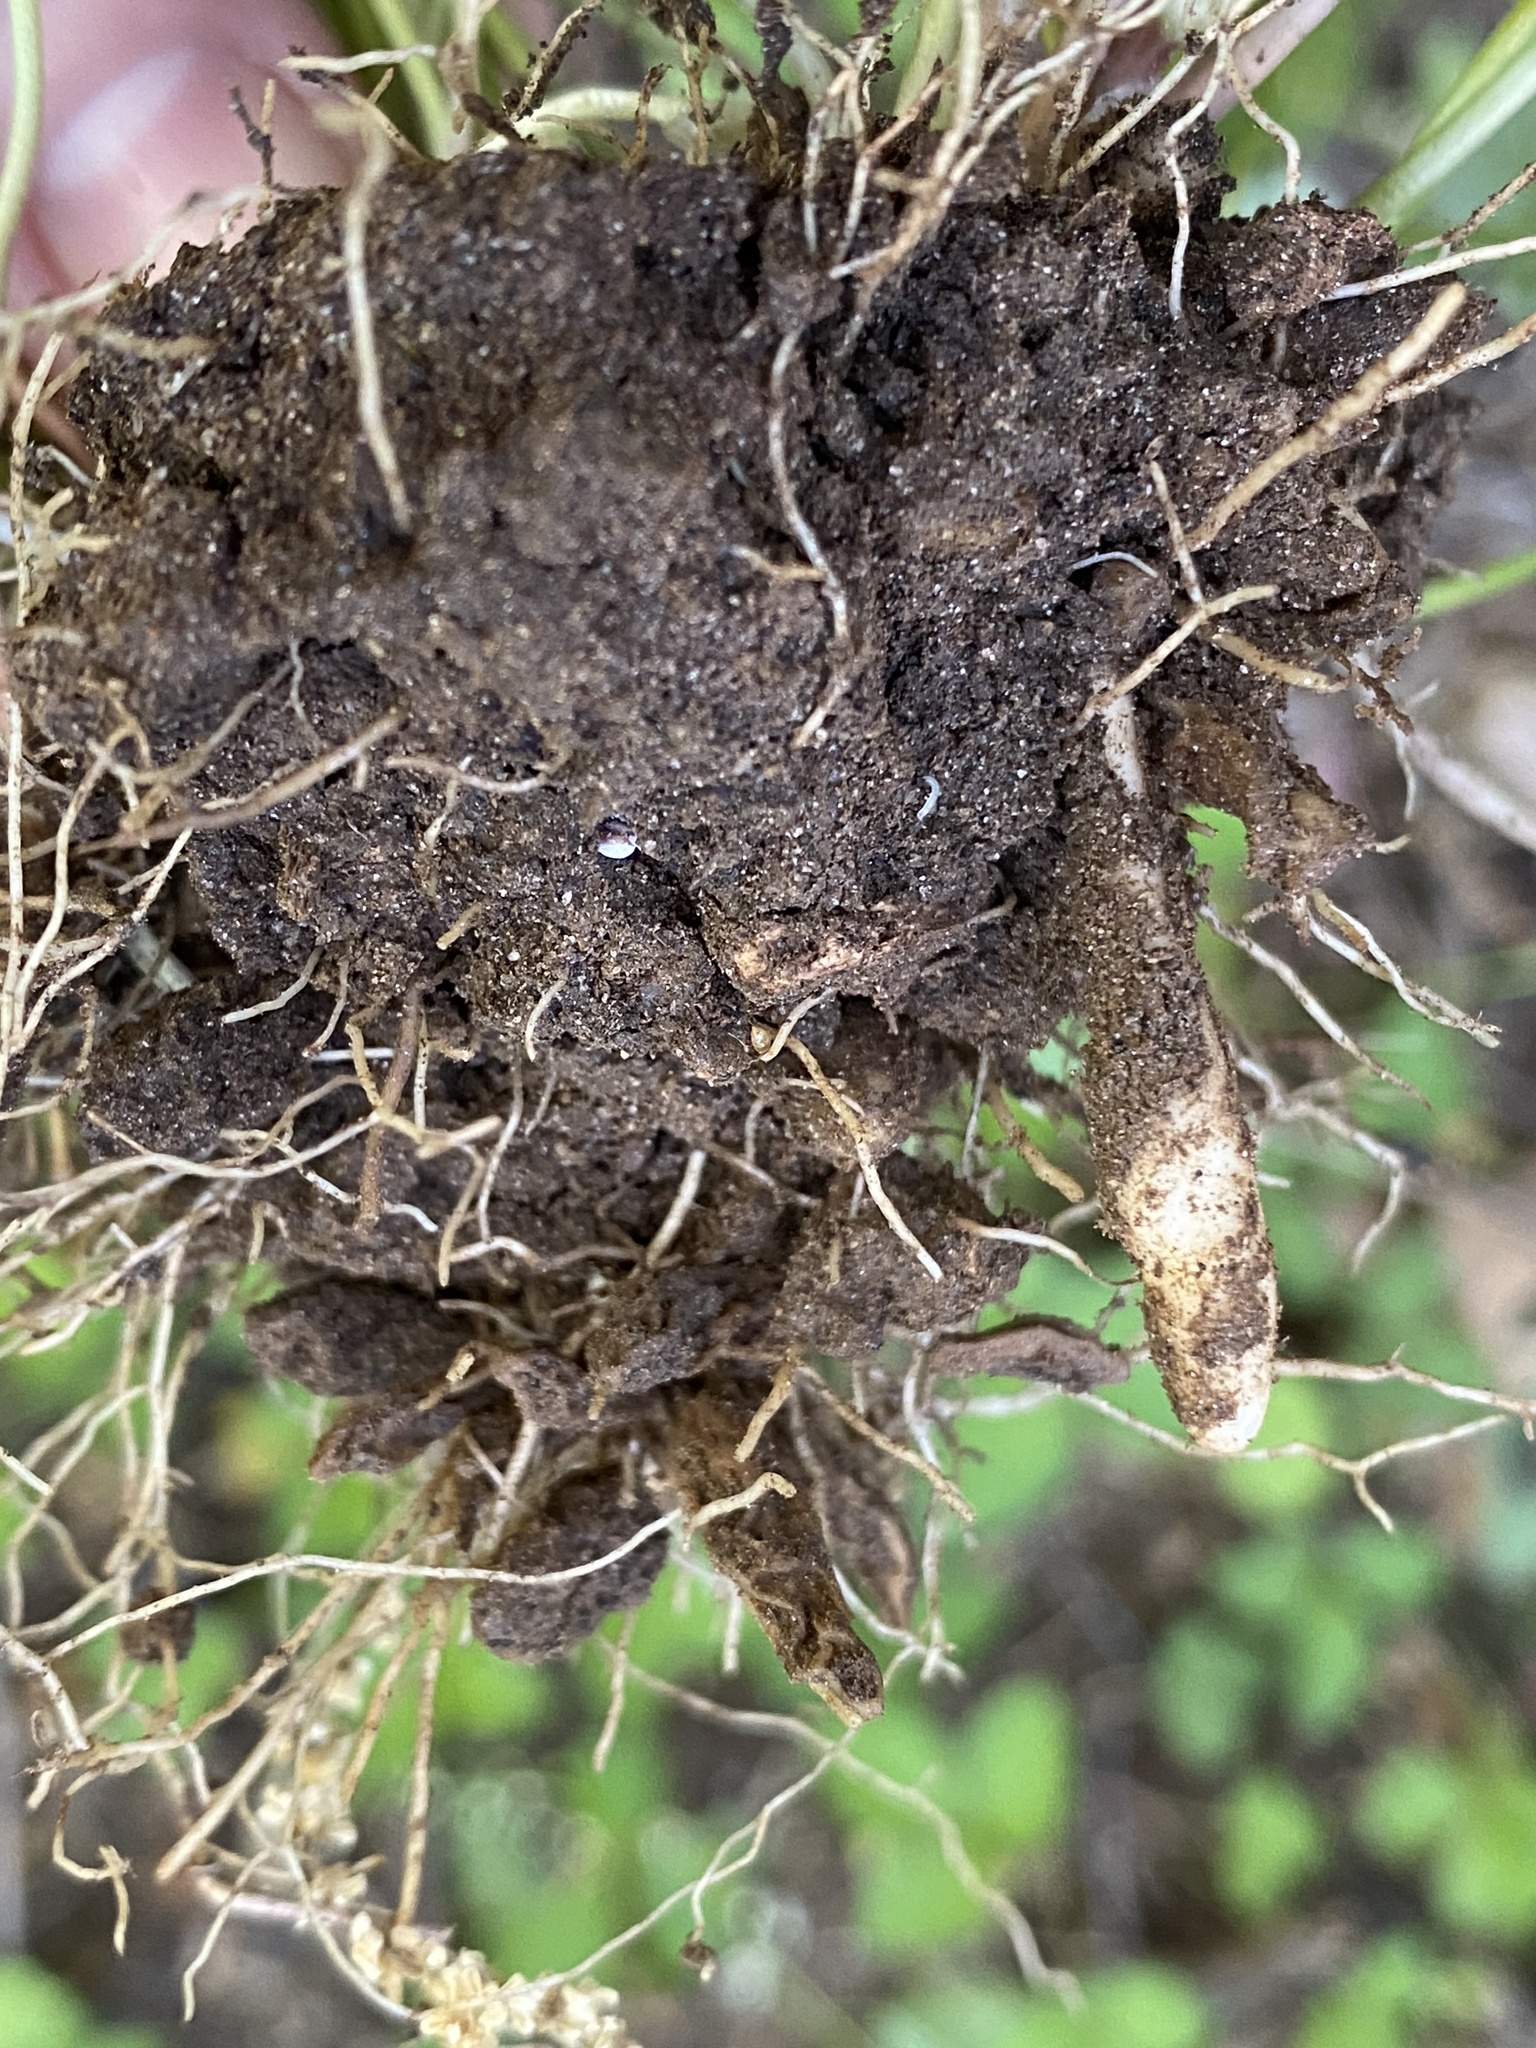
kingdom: Plantae
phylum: Tracheophyta
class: Magnoliopsida
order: Ranunculales
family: Ranunculaceae
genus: Ficaria
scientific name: Ficaria verna
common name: Lesser celandine
